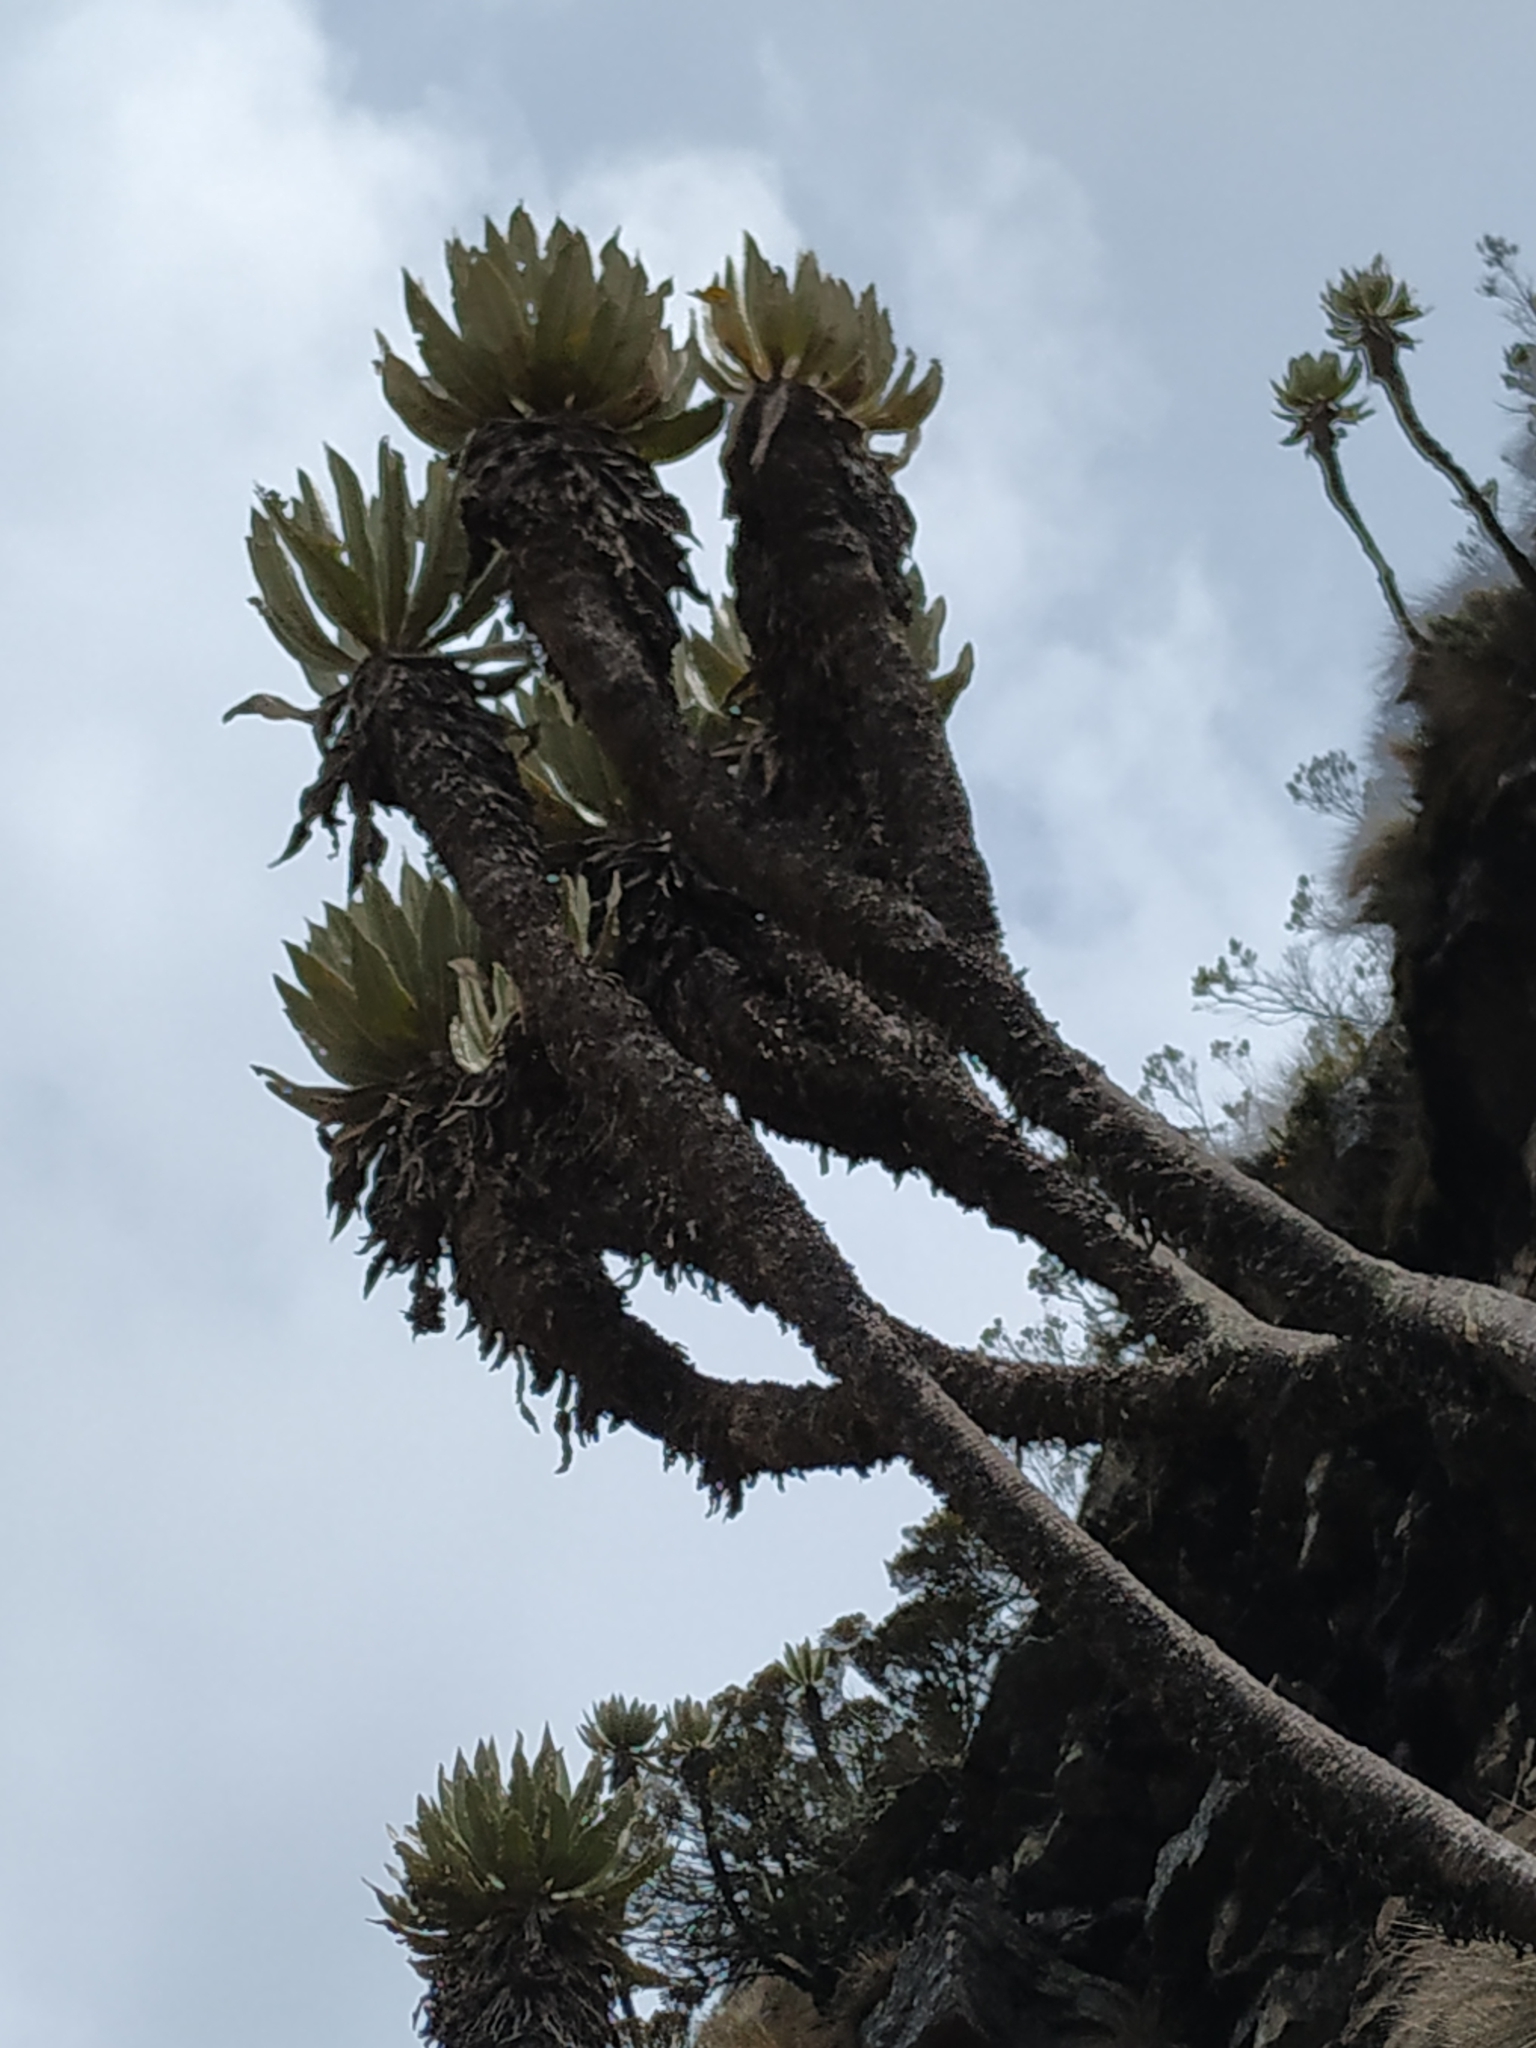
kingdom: Plantae
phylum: Tracheophyta
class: Magnoliopsida
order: Asterales
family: Asteraceae
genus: Espeletia
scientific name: Espeletia cachaluensis
